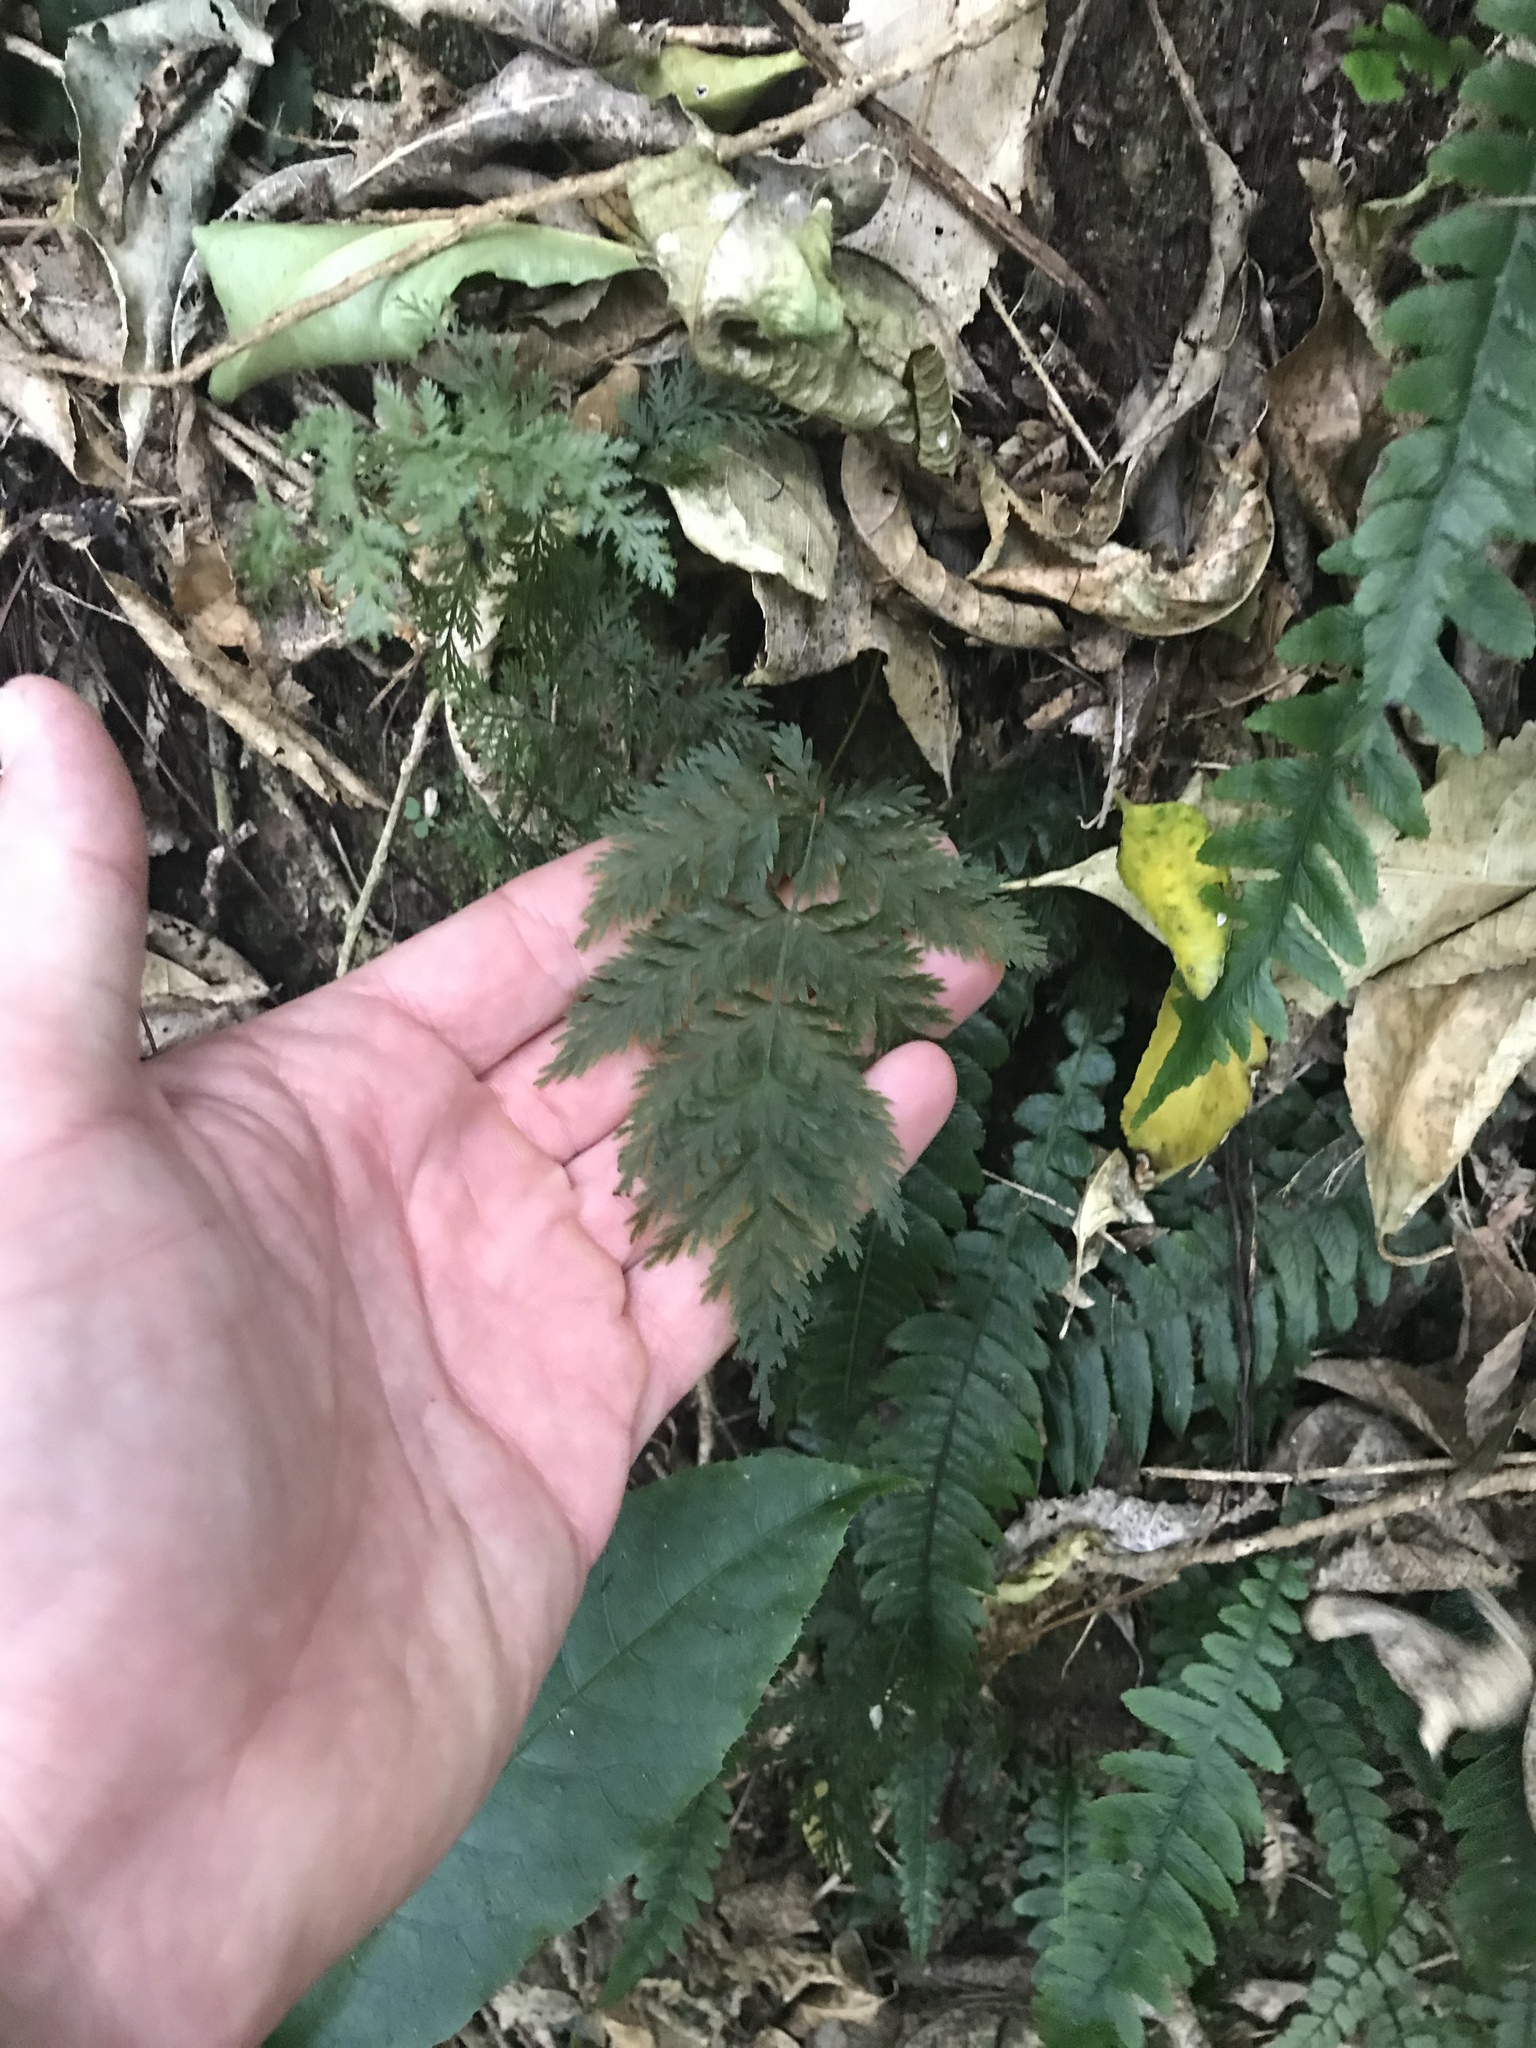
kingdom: Plantae
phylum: Tracheophyta
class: Polypodiopsida
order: Osmundales
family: Osmundaceae
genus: Leptopteris
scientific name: Leptopteris hymenophylloides
